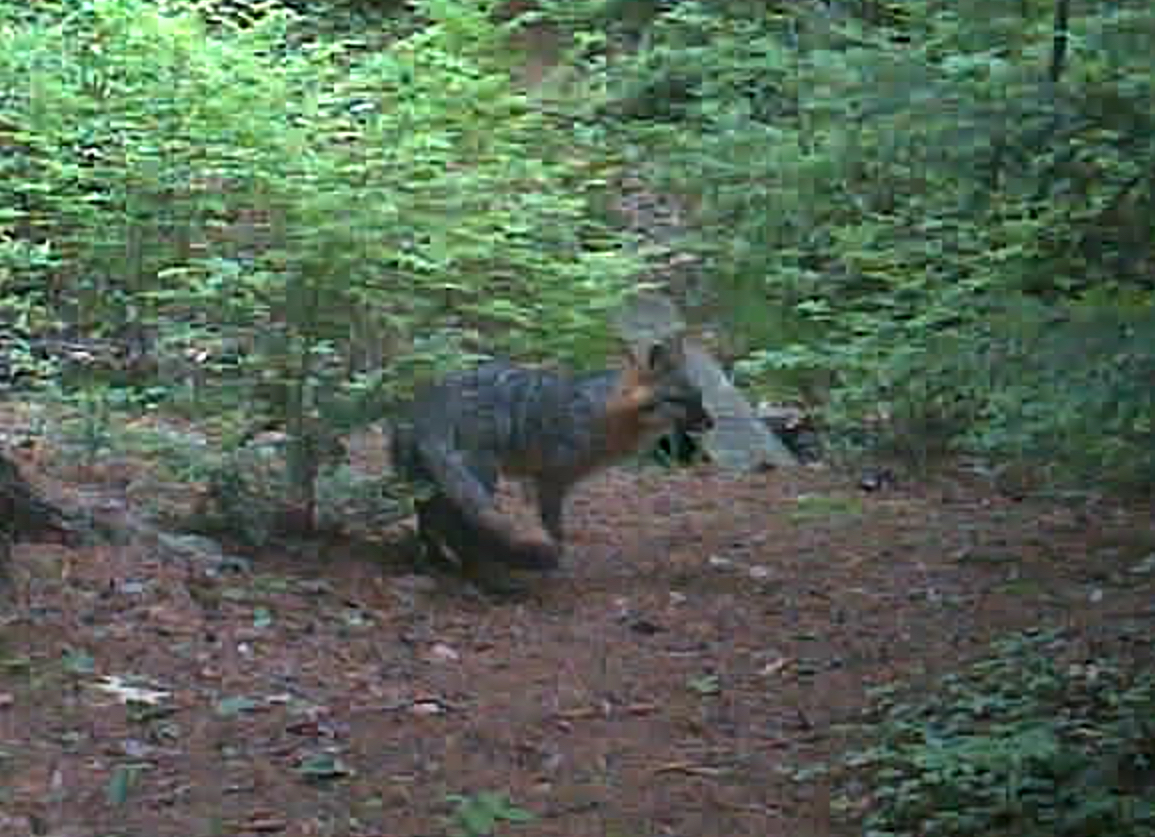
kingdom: Animalia
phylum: Chordata
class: Mammalia
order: Carnivora
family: Canidae
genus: Urocyon
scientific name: Urocyon cinereoargenteus
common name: Gray fox
